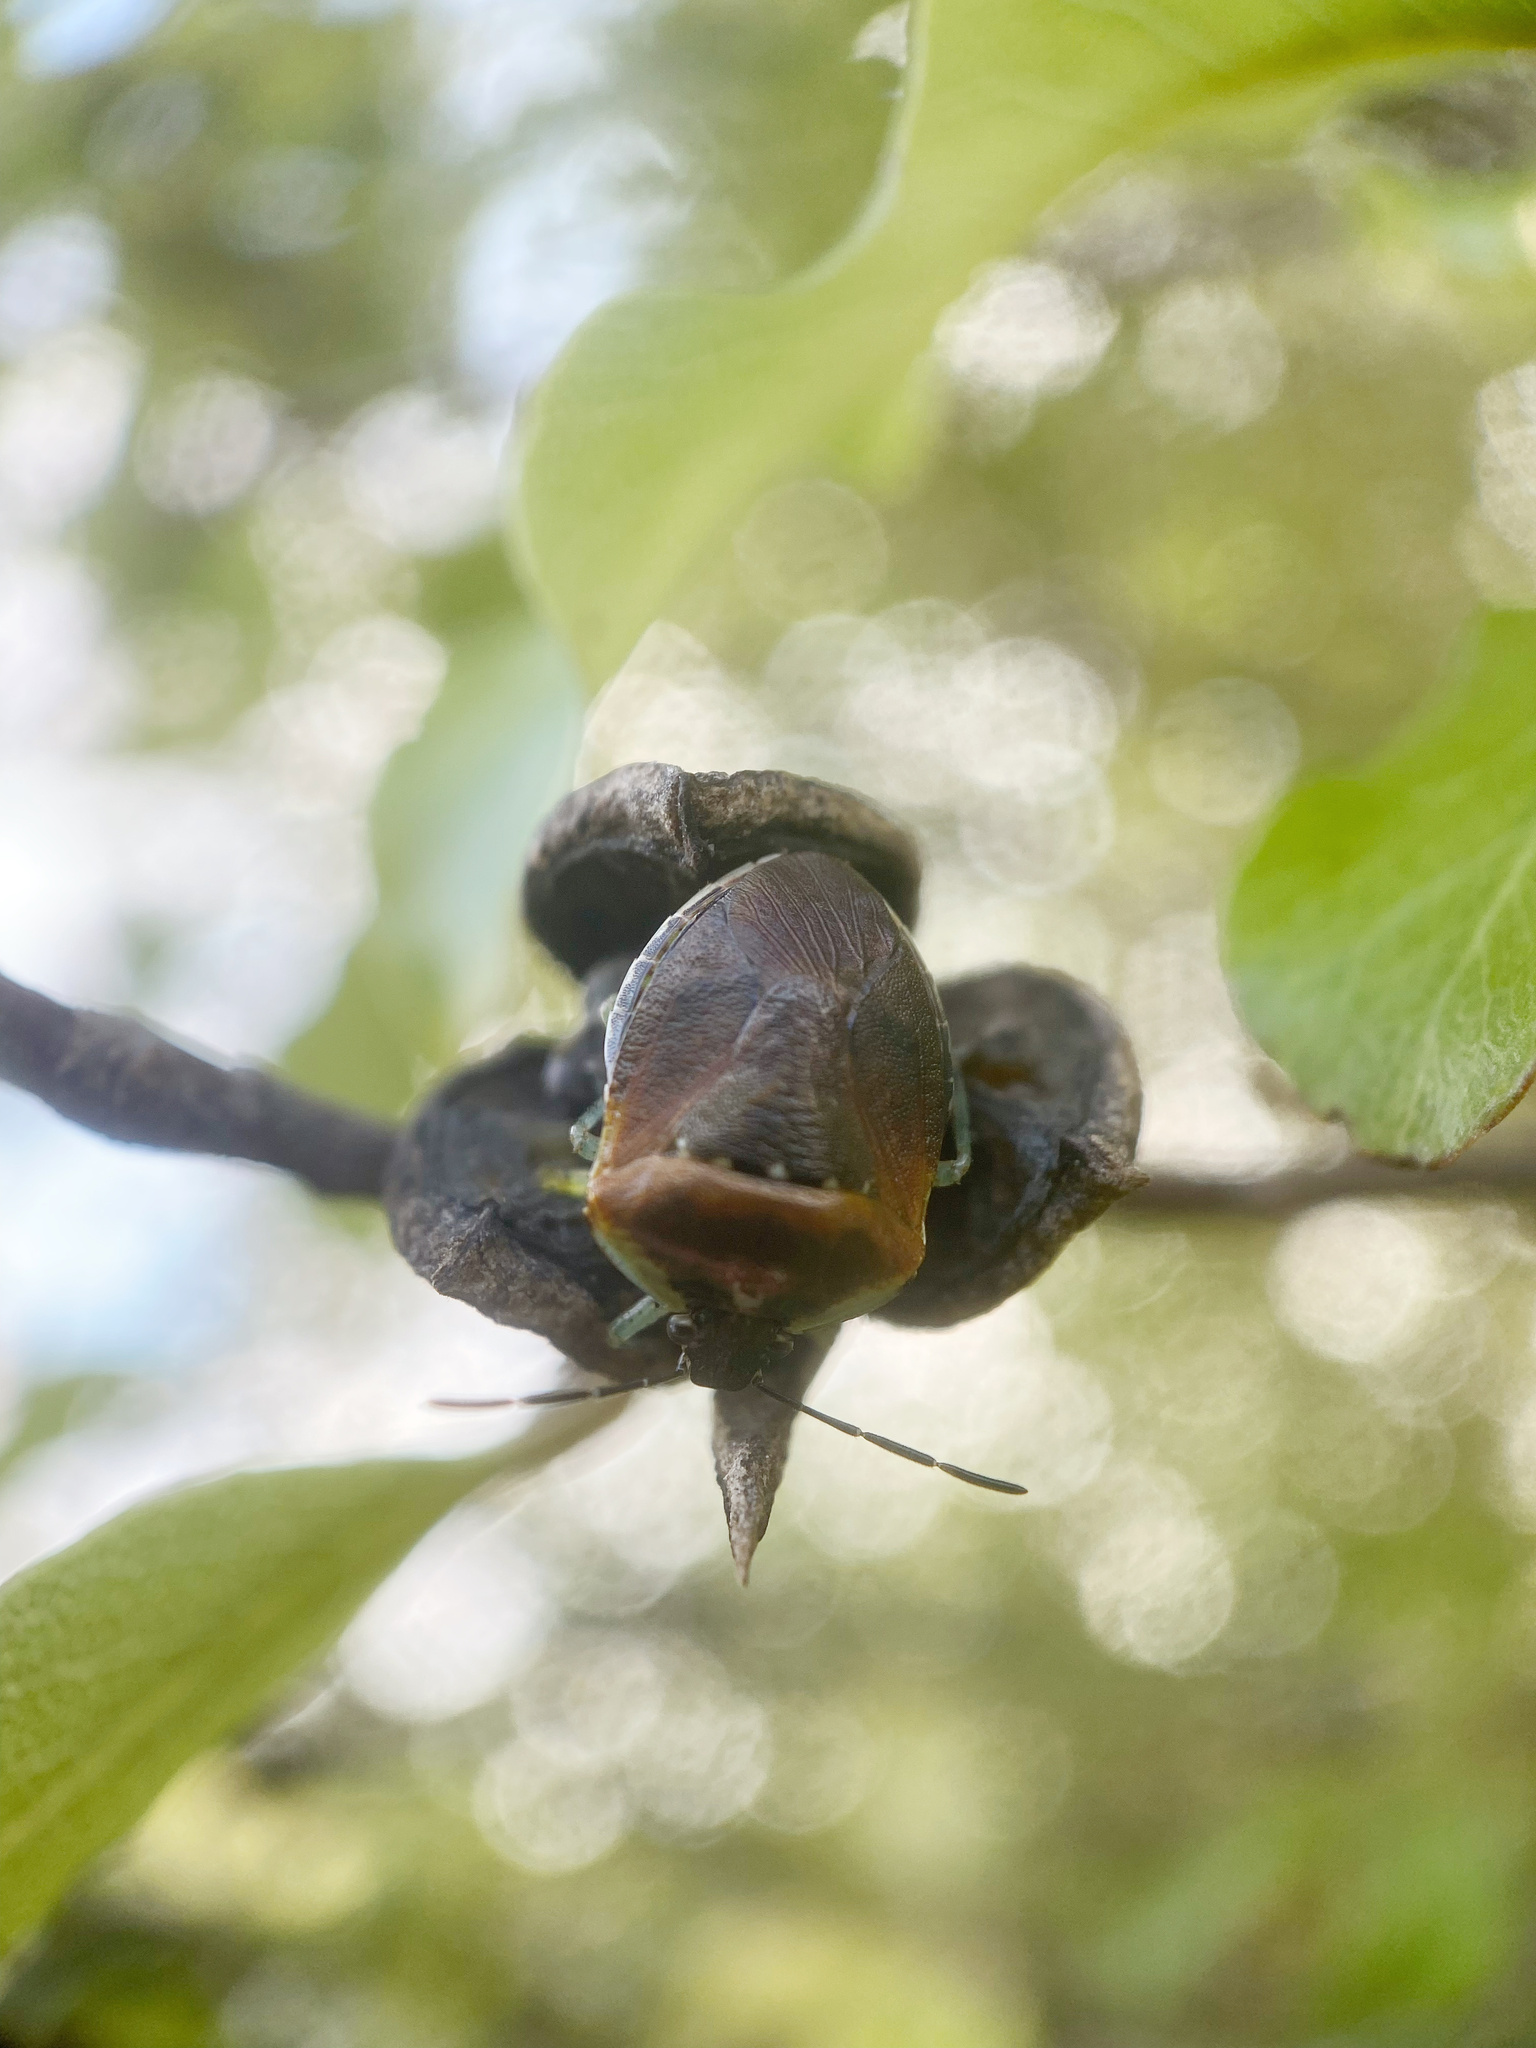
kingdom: Animalia
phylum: Arthropoda
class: Insecta
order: Hemiptera
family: Pentatomidae
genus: Monteithiella
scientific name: Monteithiella
